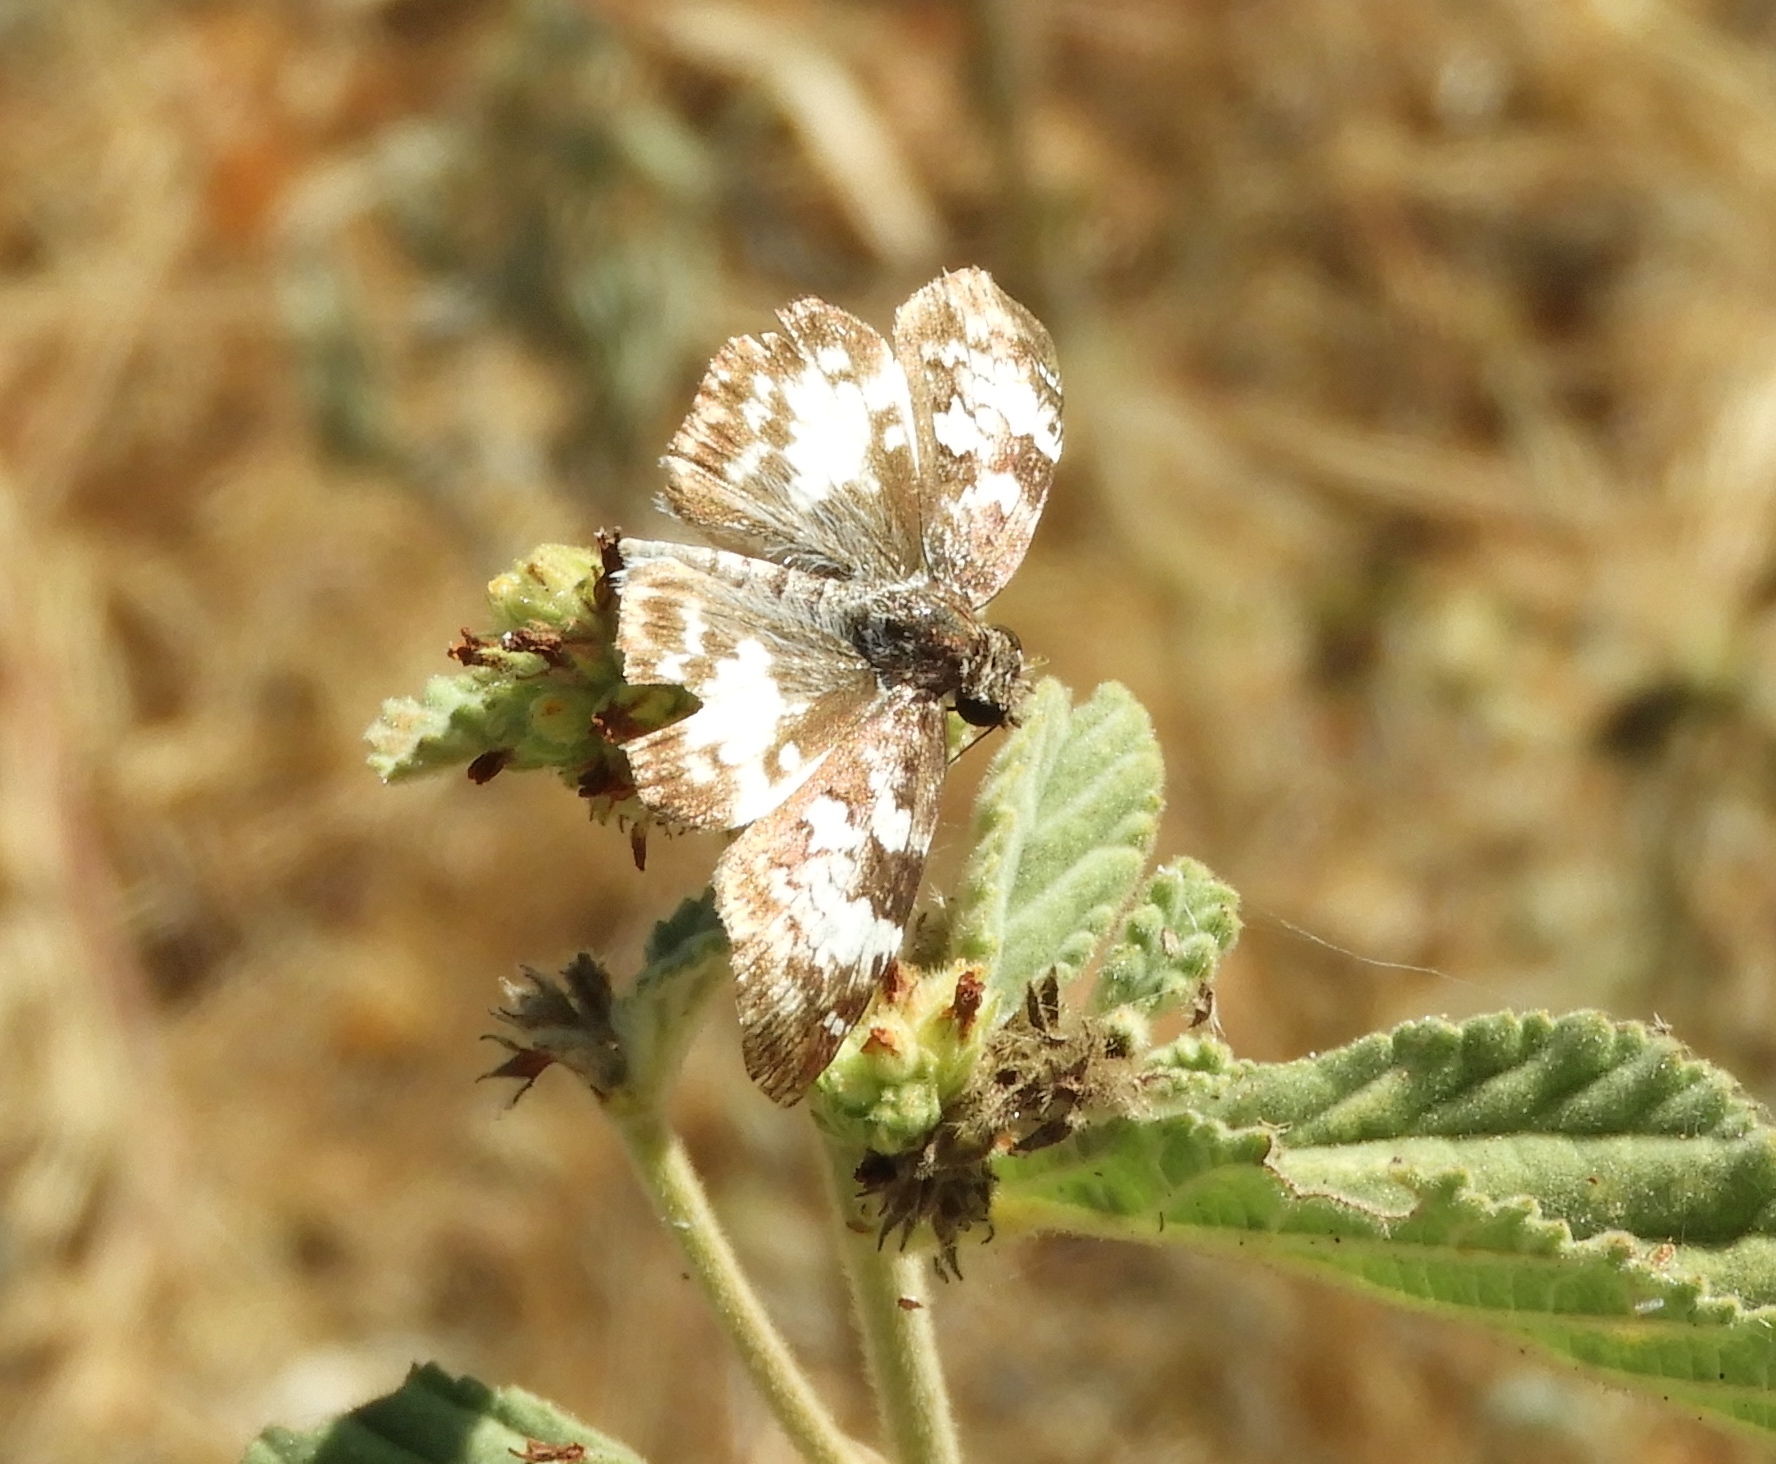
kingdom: Animalia
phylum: Arthropoda
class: Insecta
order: Lepidoptera
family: Hesperiidae
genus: Chiothion
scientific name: Chiothion georgina
